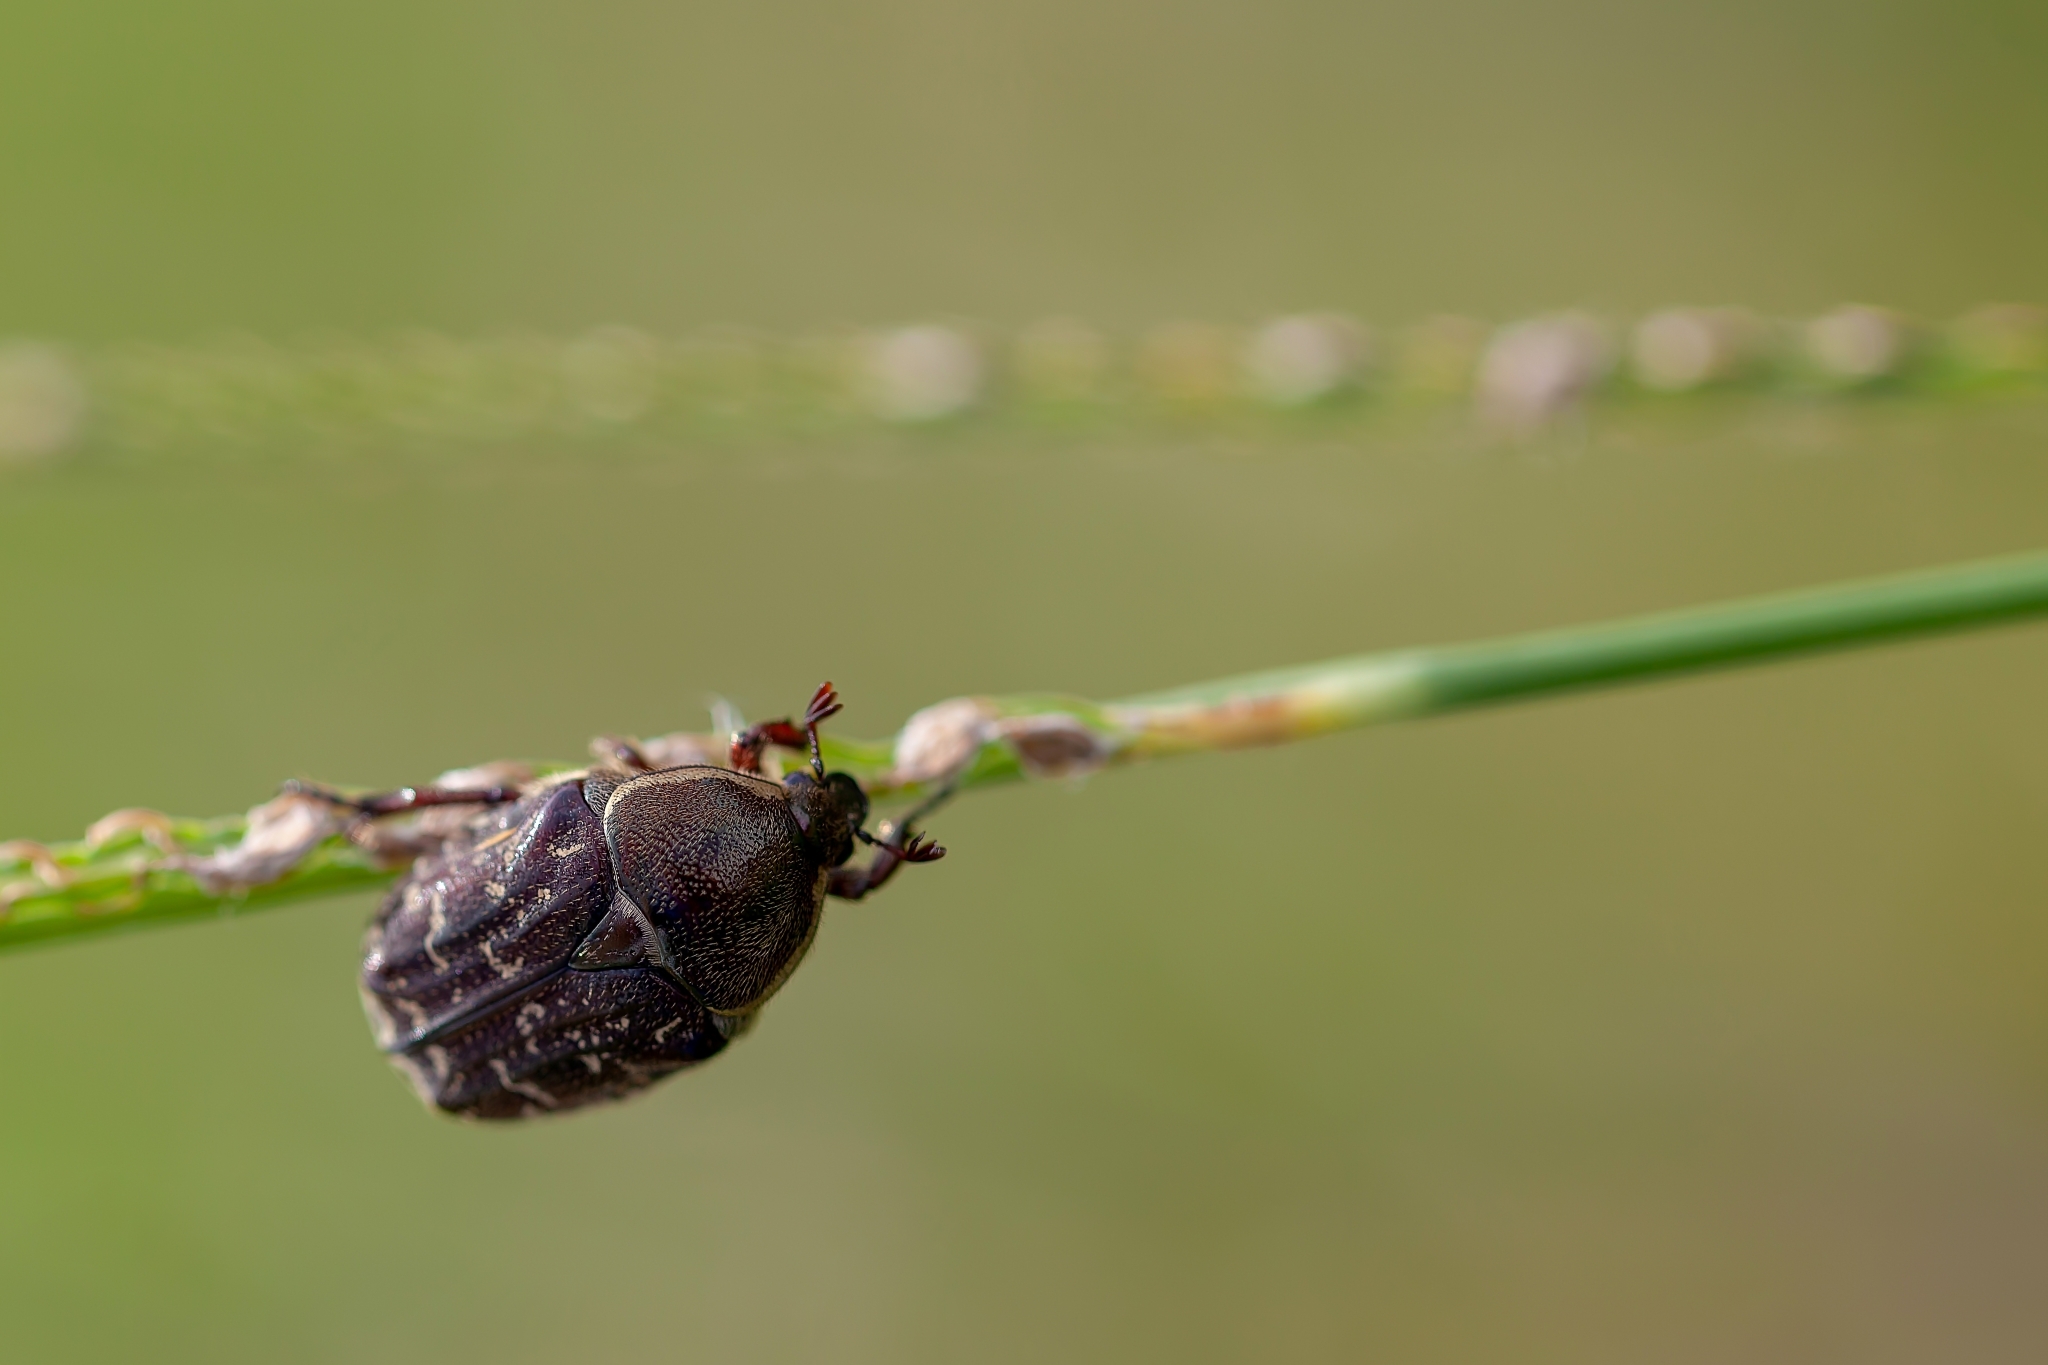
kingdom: Animalia
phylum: Arthropoda
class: Insecta
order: Coleoptera
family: Scarabaeidae
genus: Euphoria
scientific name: Euphoria sepulcralis
